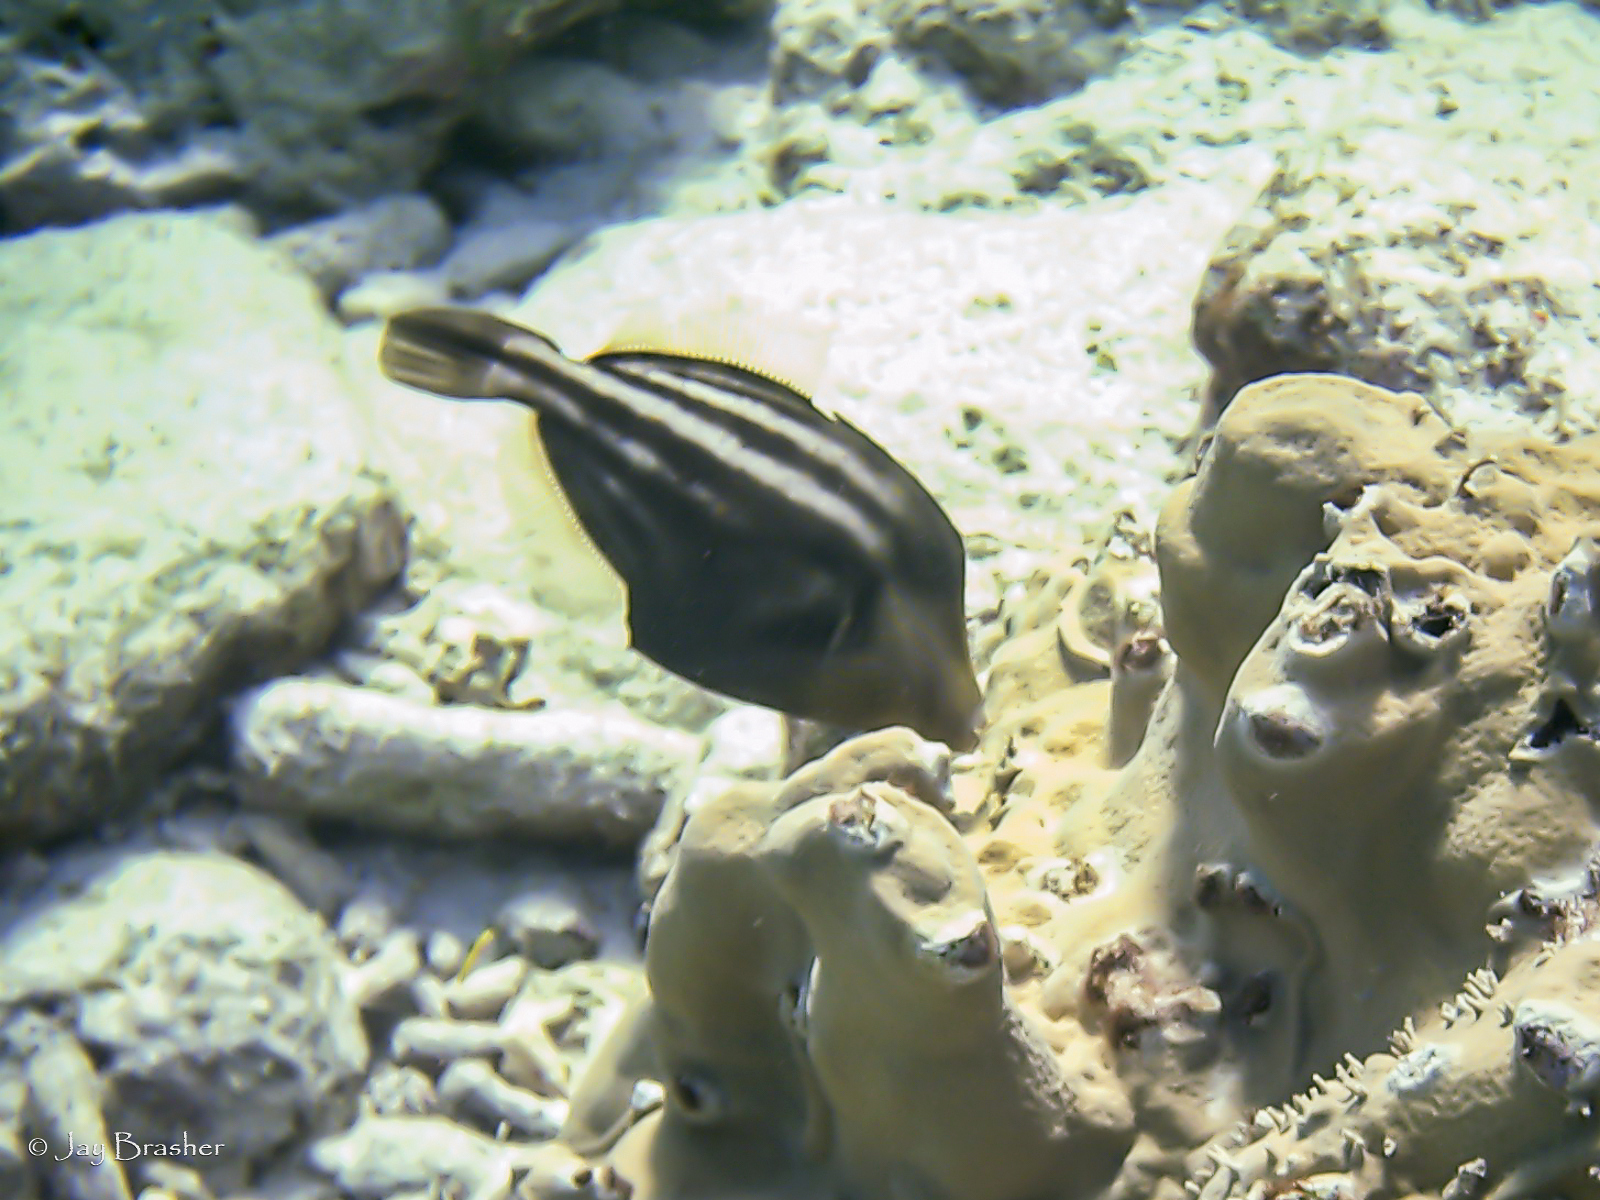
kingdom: Animalia
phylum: Chordata
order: Tetraodontiformes
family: Monacanthidae
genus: Cantherhines
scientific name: Cantherhines pullus
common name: Orangespotted filefish
